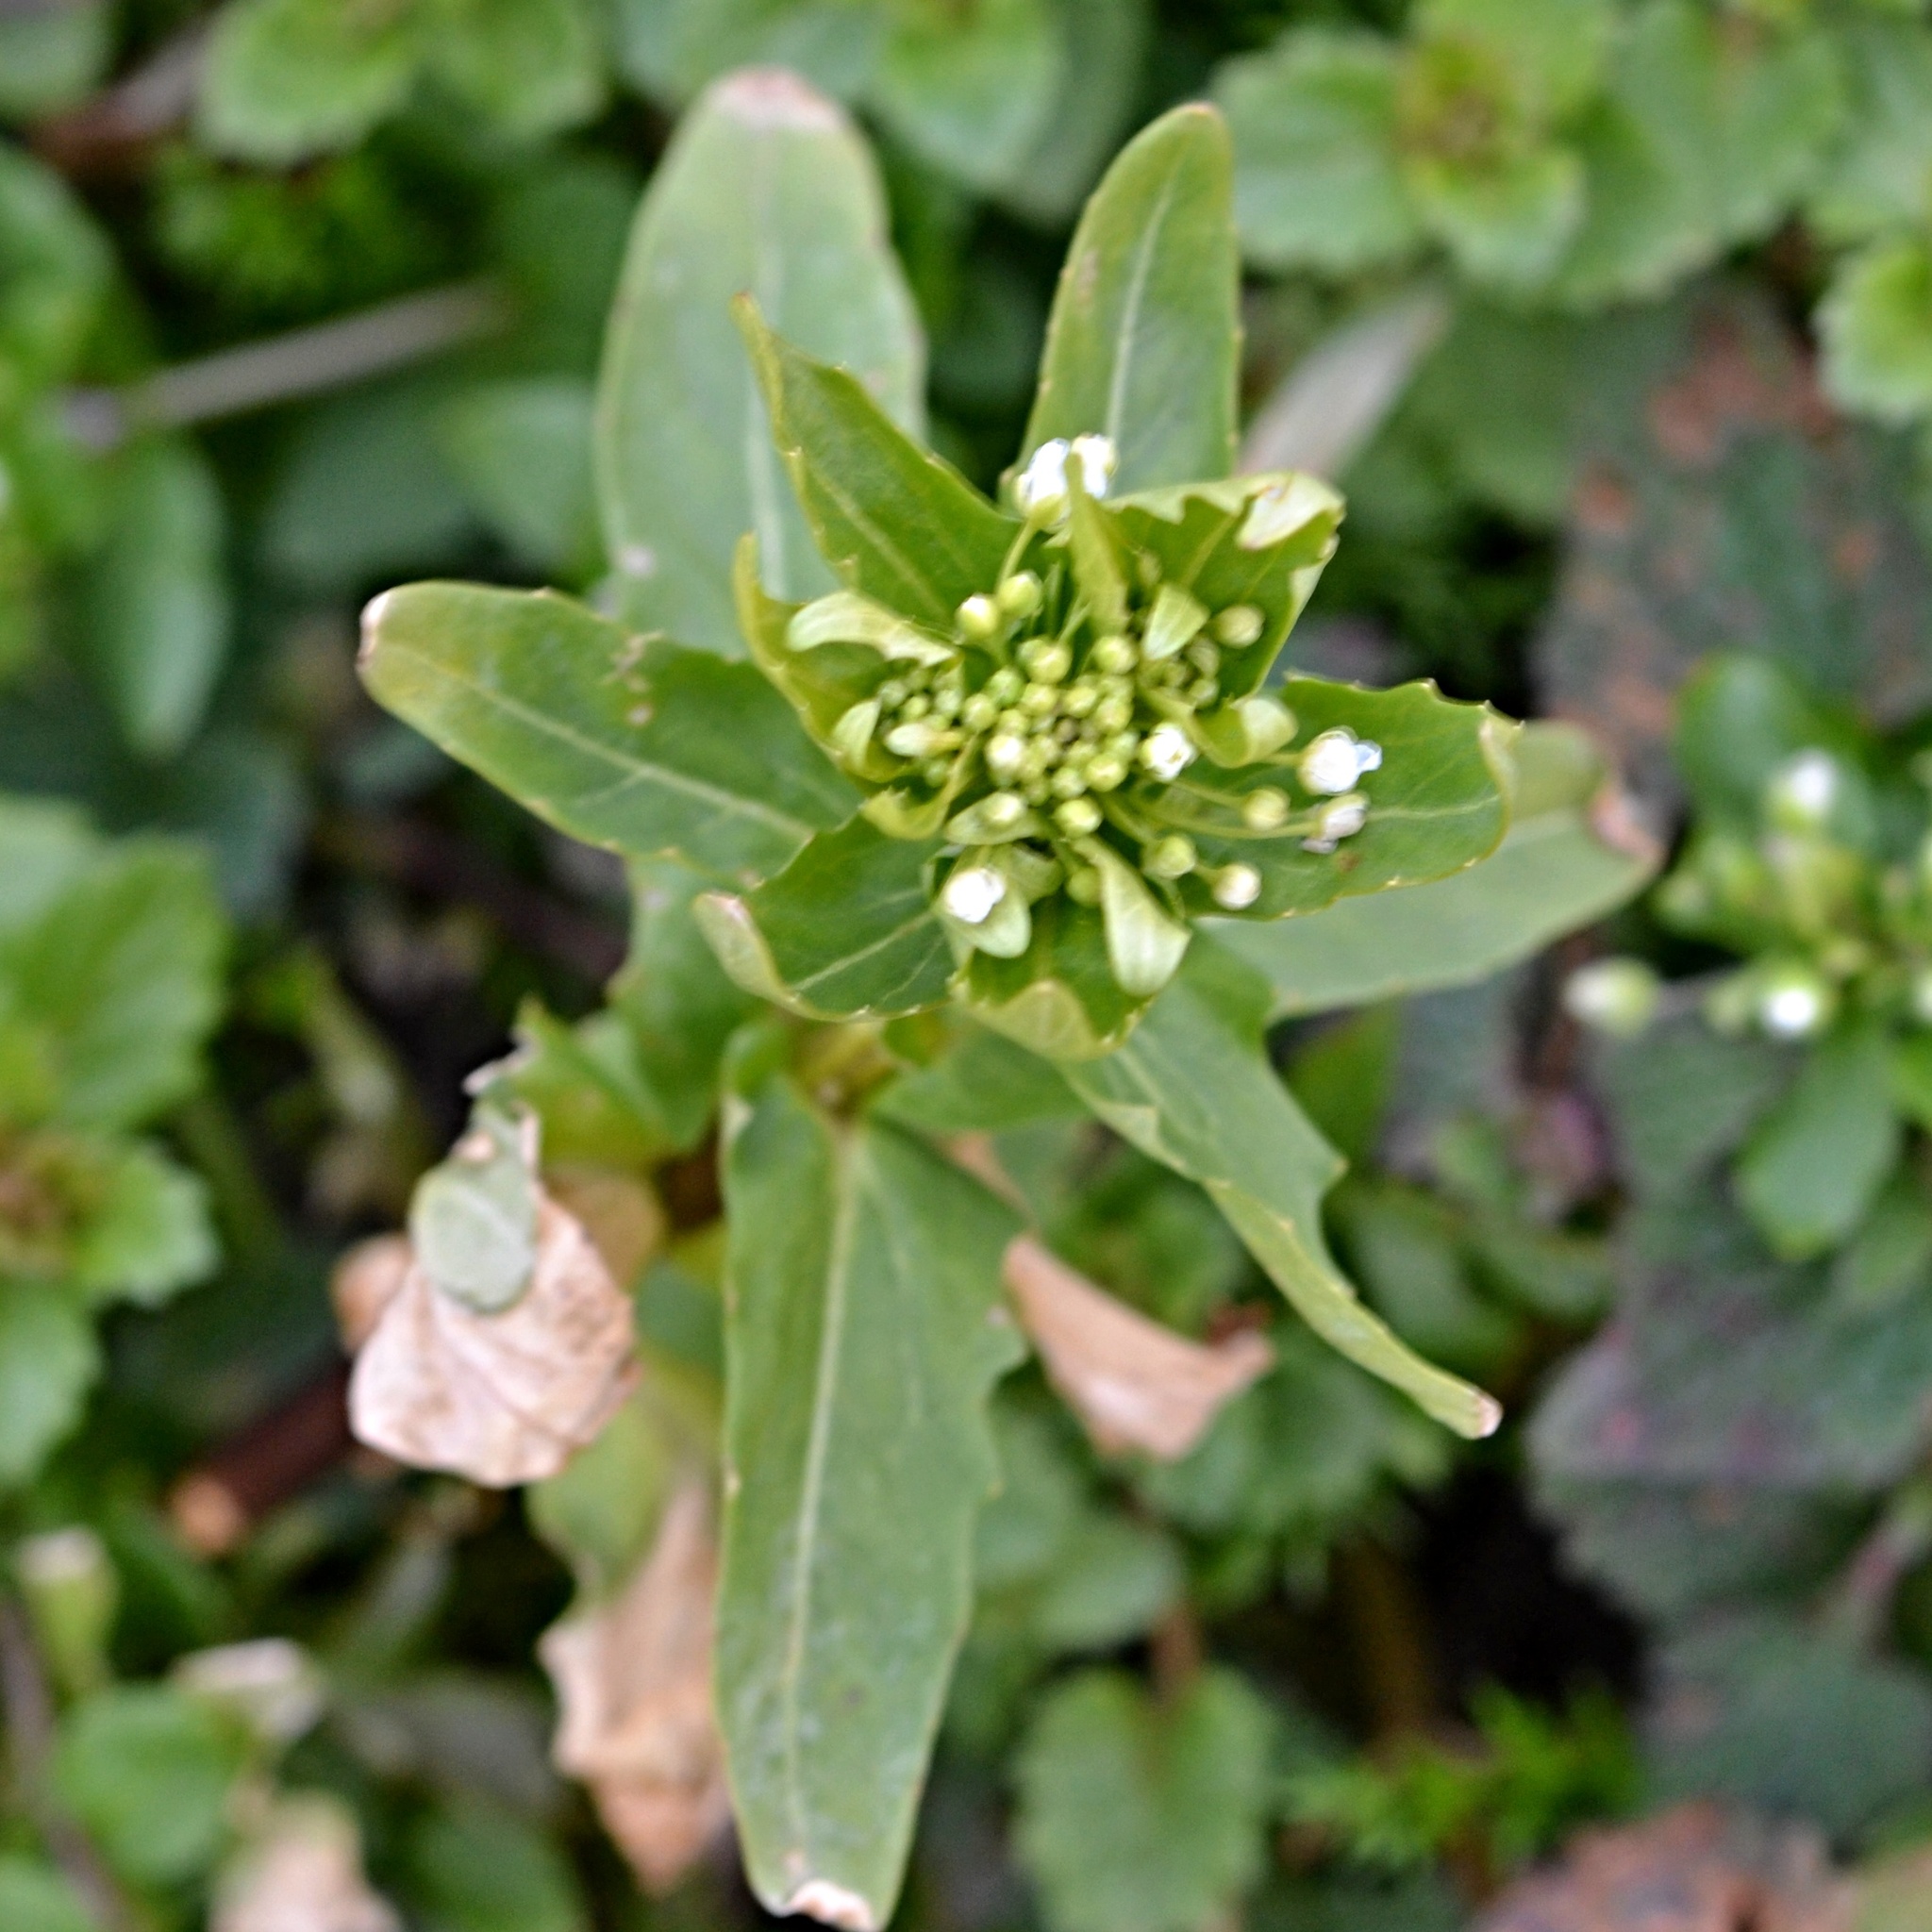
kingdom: Plantae
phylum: Tracheophyta
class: Magnoliopsida
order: Brassicales
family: Brassicaceae
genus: Thlaspi
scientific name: Thlaspi arvense
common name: Field pennycress
